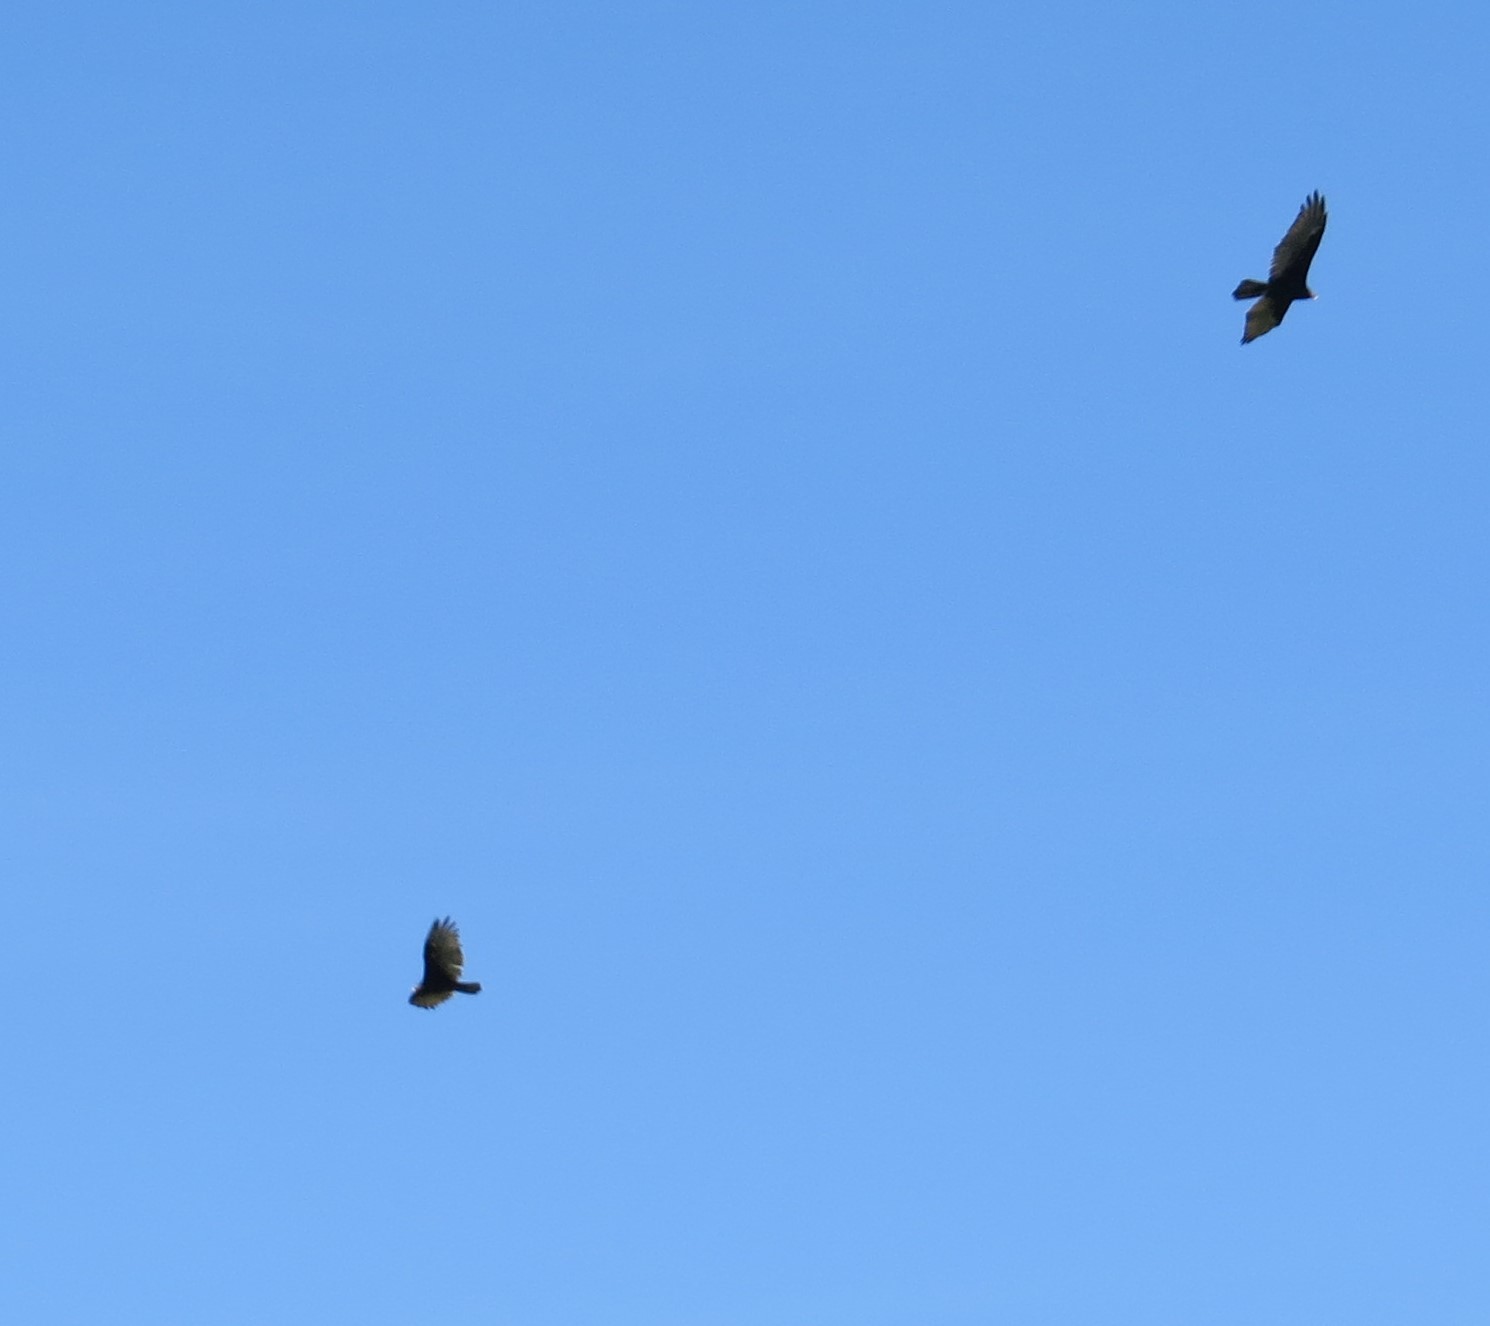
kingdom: Animalia
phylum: Chordata
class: Aves
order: Accipitriformes
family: Cathartidae
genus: Cathartes
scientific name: Cathartes aura
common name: Turkey vulture
